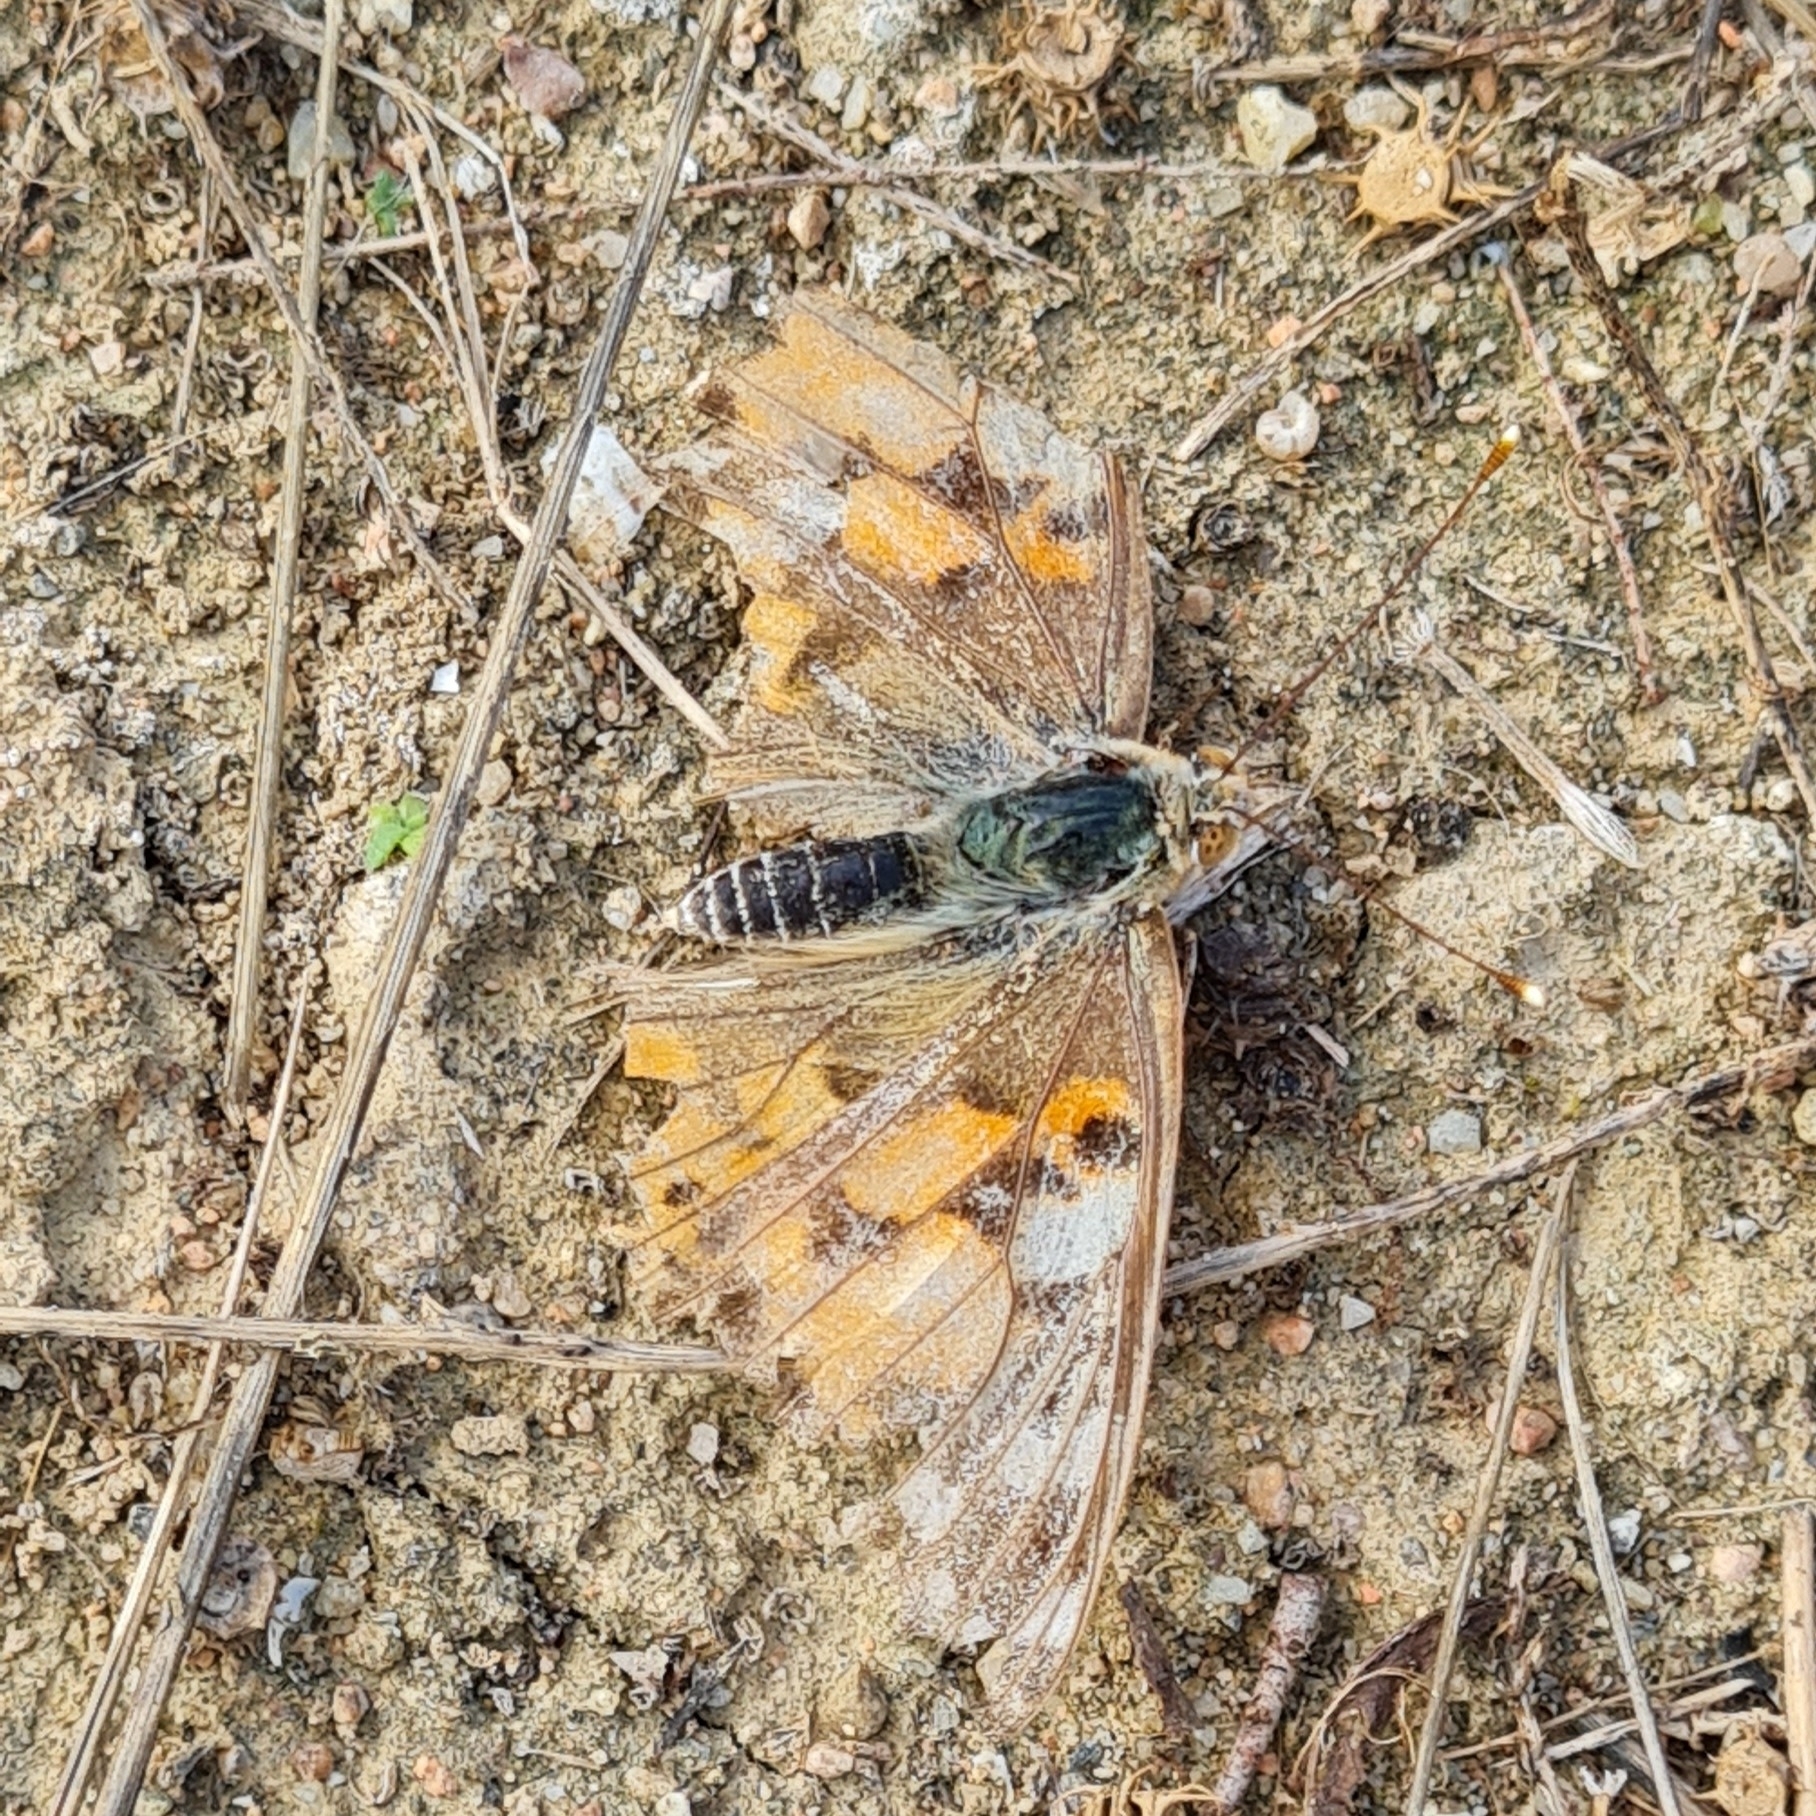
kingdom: Animalia
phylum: Arthropoda
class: Insecta
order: Lepidoptera
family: Nymphalidae
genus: Vanessa
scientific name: Vanessa cardui
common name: Painted lady
